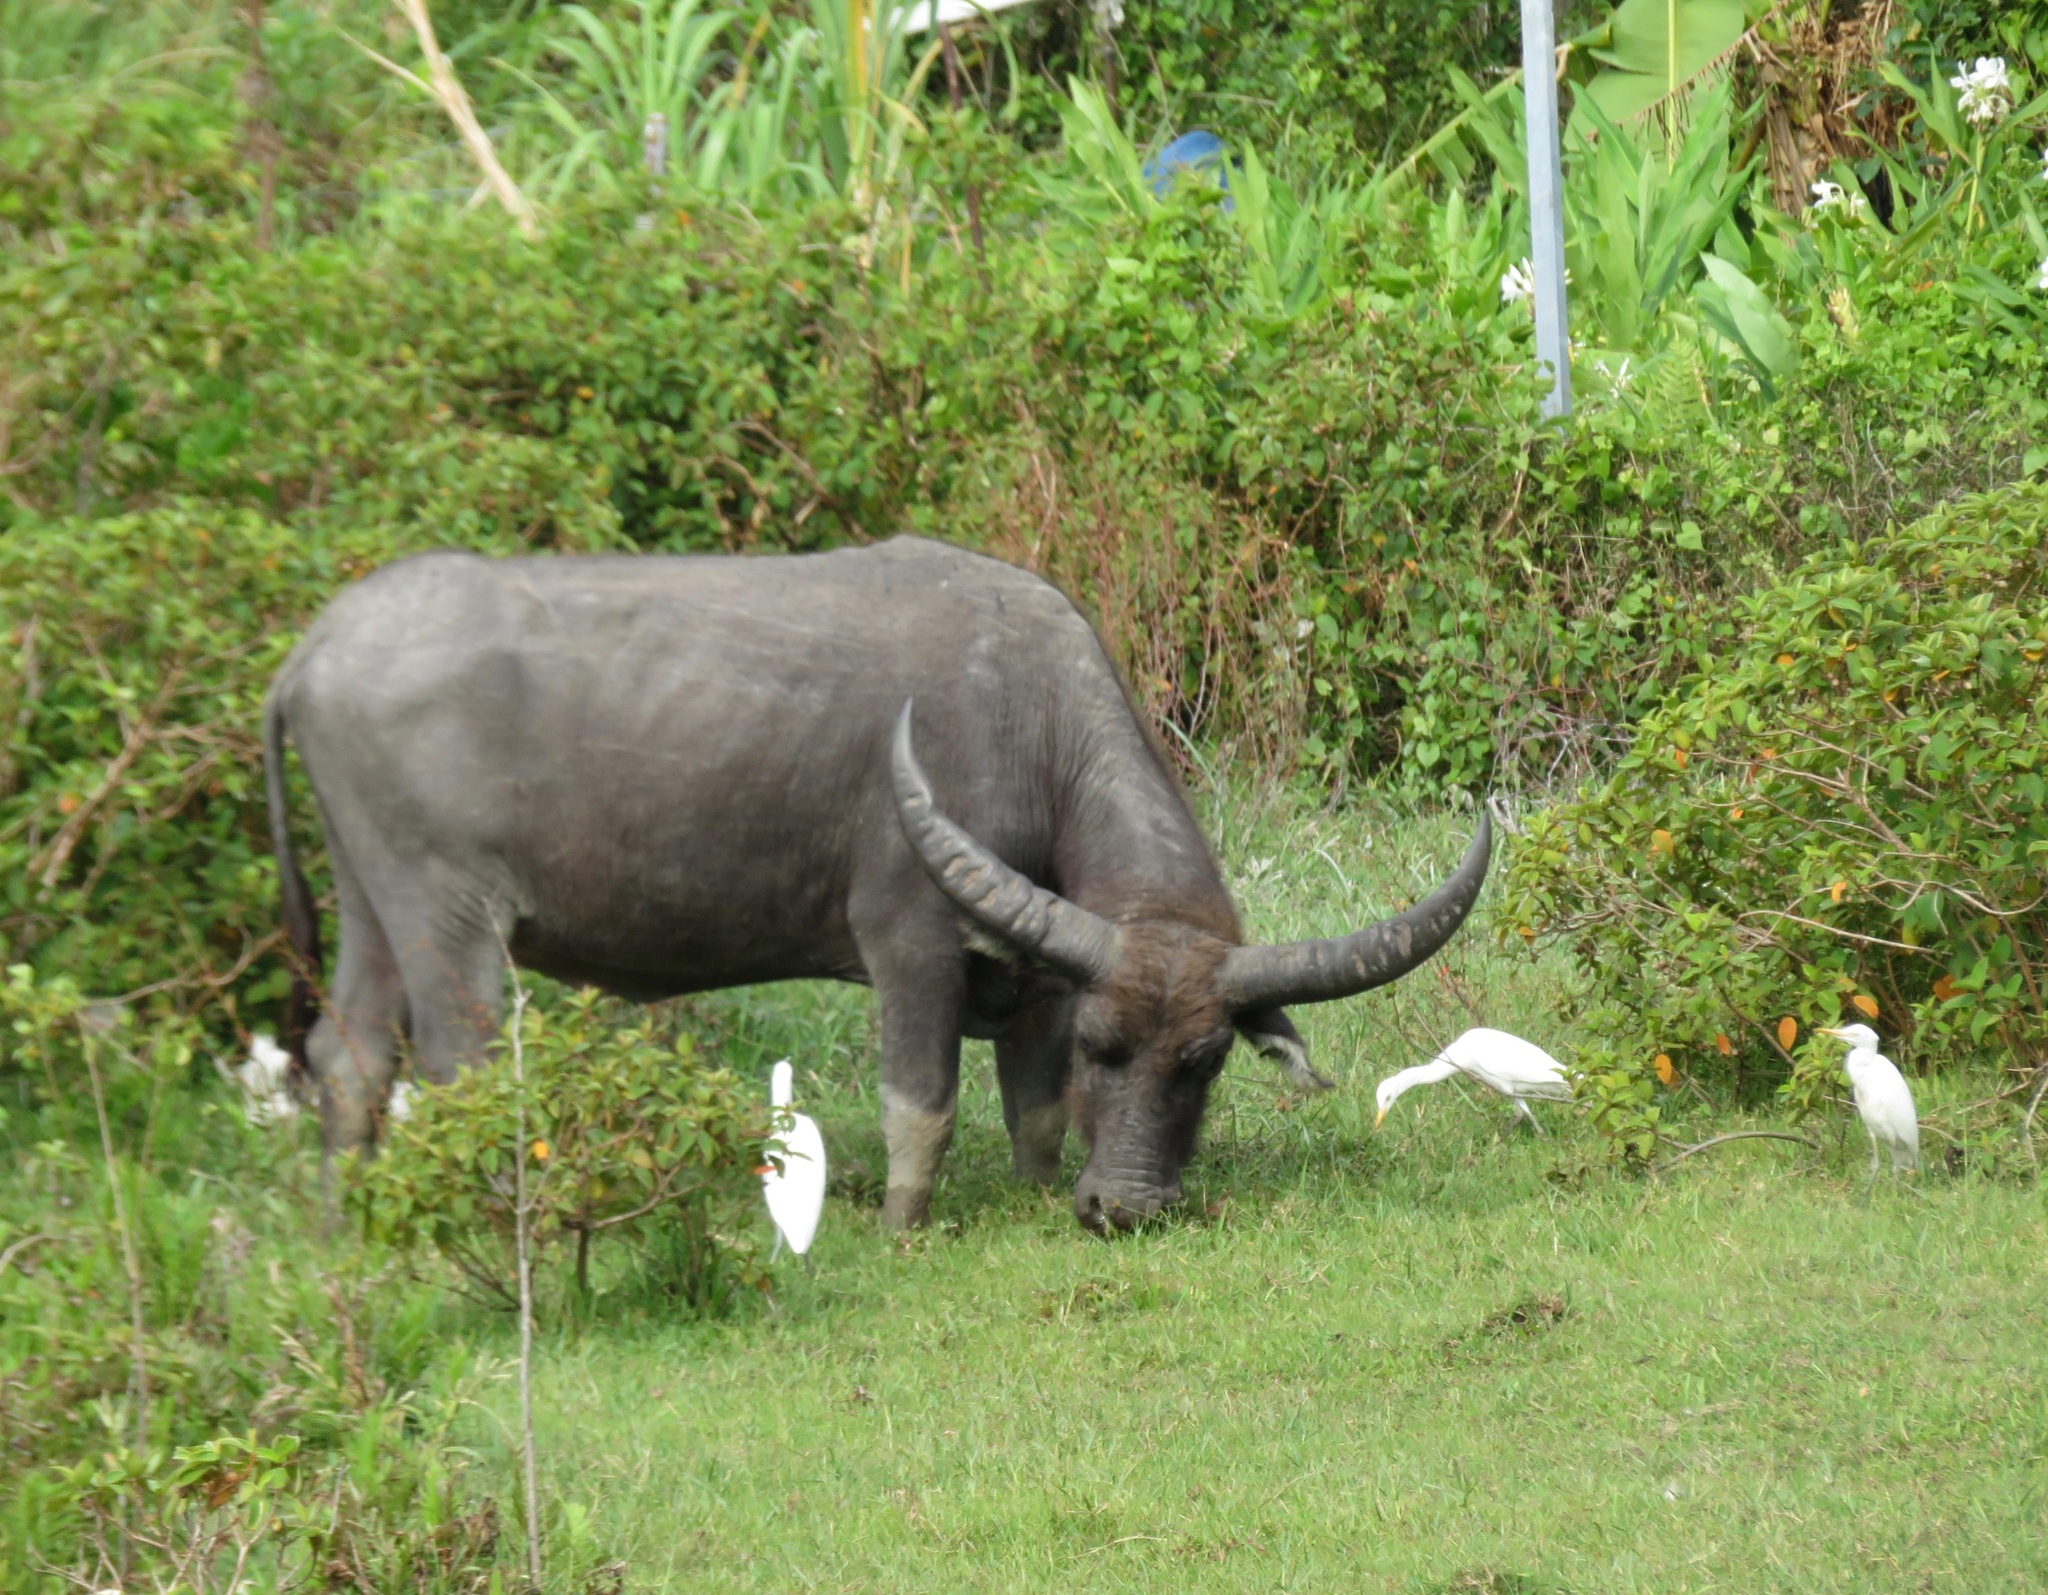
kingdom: Animalia
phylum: Chordata
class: Mammalia
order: Artiodactyla
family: Bovidae
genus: Bubalus
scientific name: Bubalus bubalis
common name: Water buffalo
